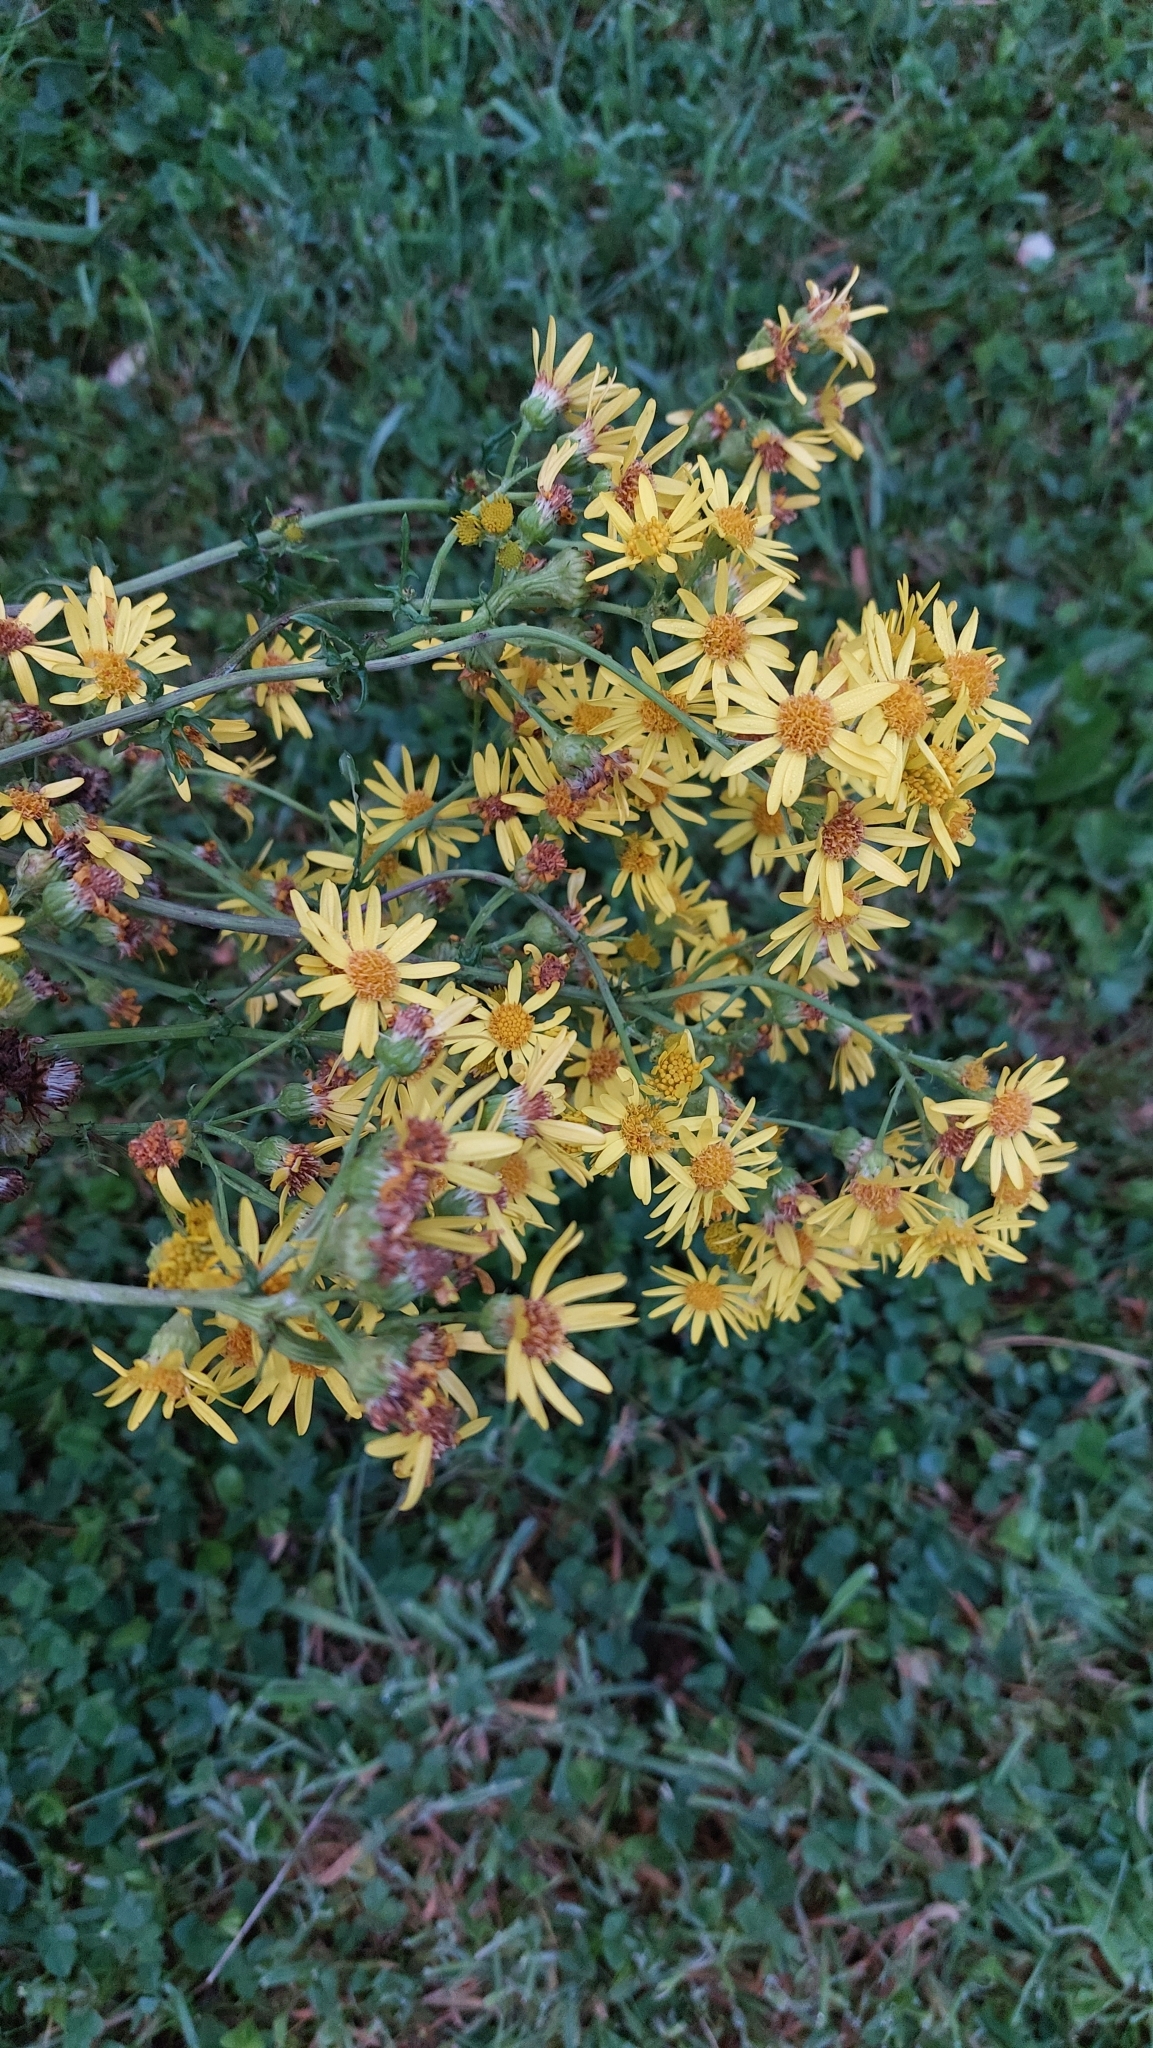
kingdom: Plantae
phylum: Tracheophyta
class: Magnoliopsida
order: Asterales
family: Asteraceae
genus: Jacobaea
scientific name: Jacobaea vulgaris
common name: Stinking willie
